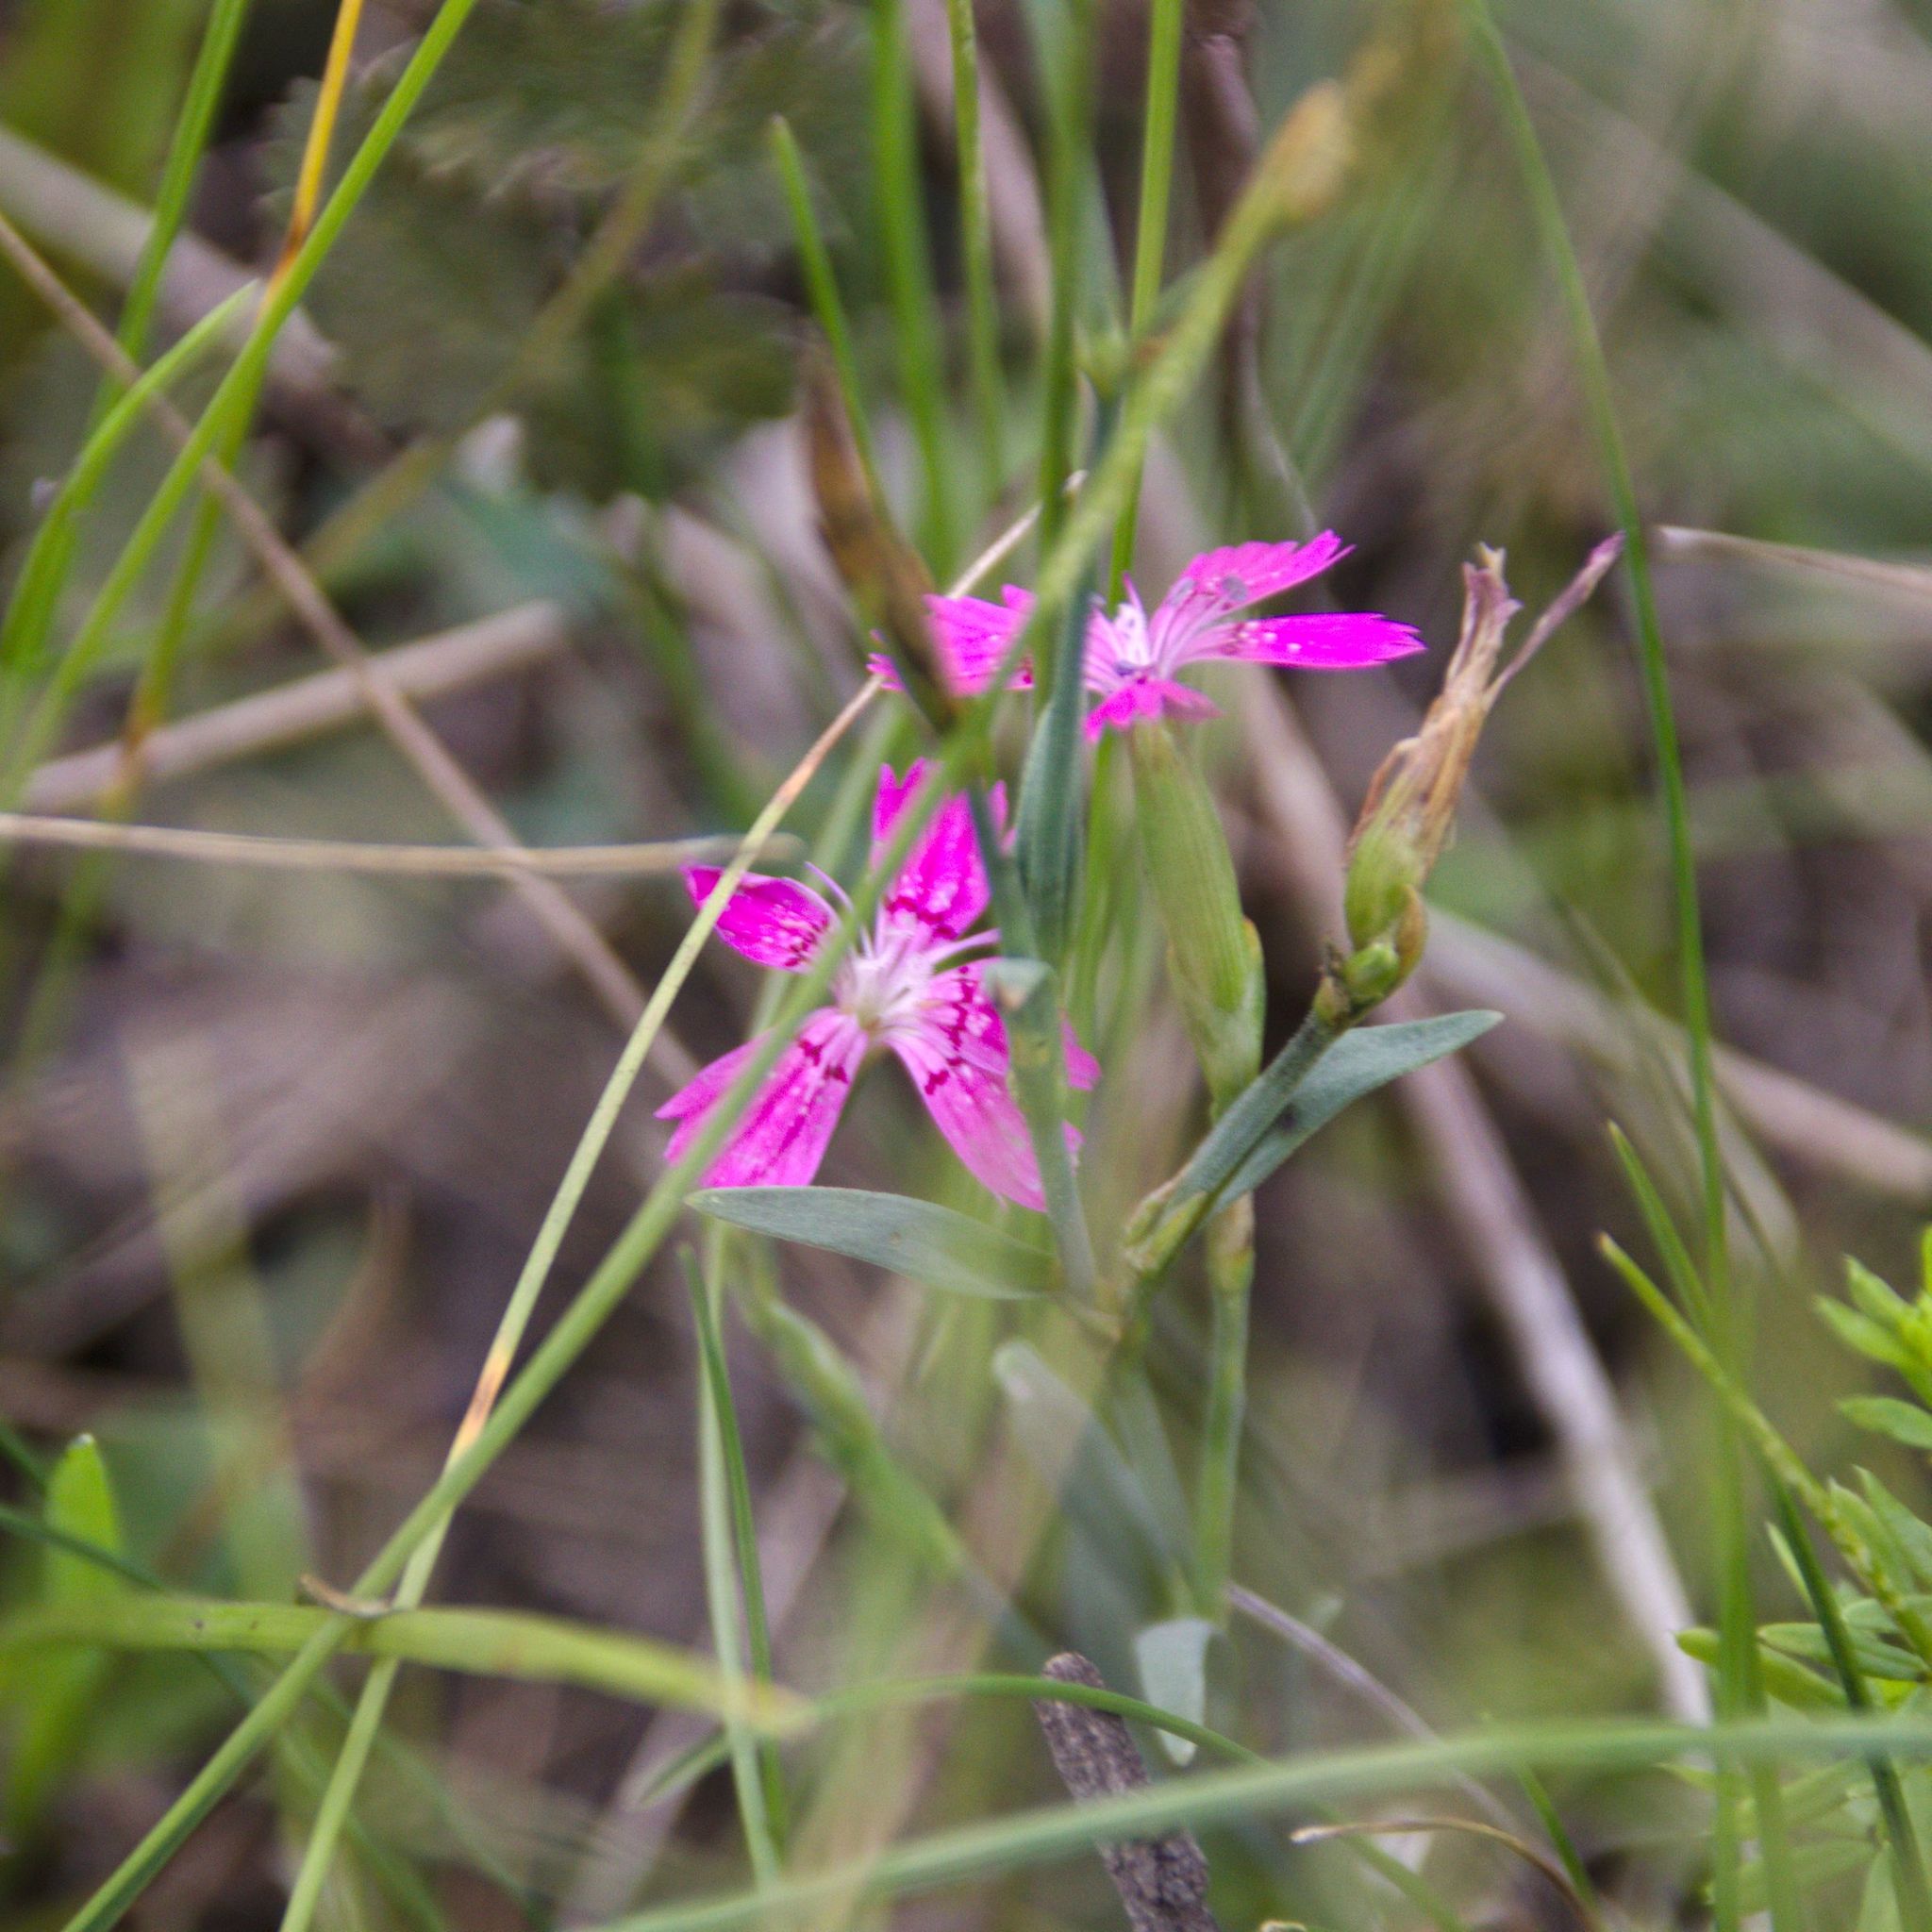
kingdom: Plantae
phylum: Tracheophyta
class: Magnoliopsida
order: Caryophyllales
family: Caryophyllaceae
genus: Dianthus
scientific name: Dianthus deltoides
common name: Maiden pink
